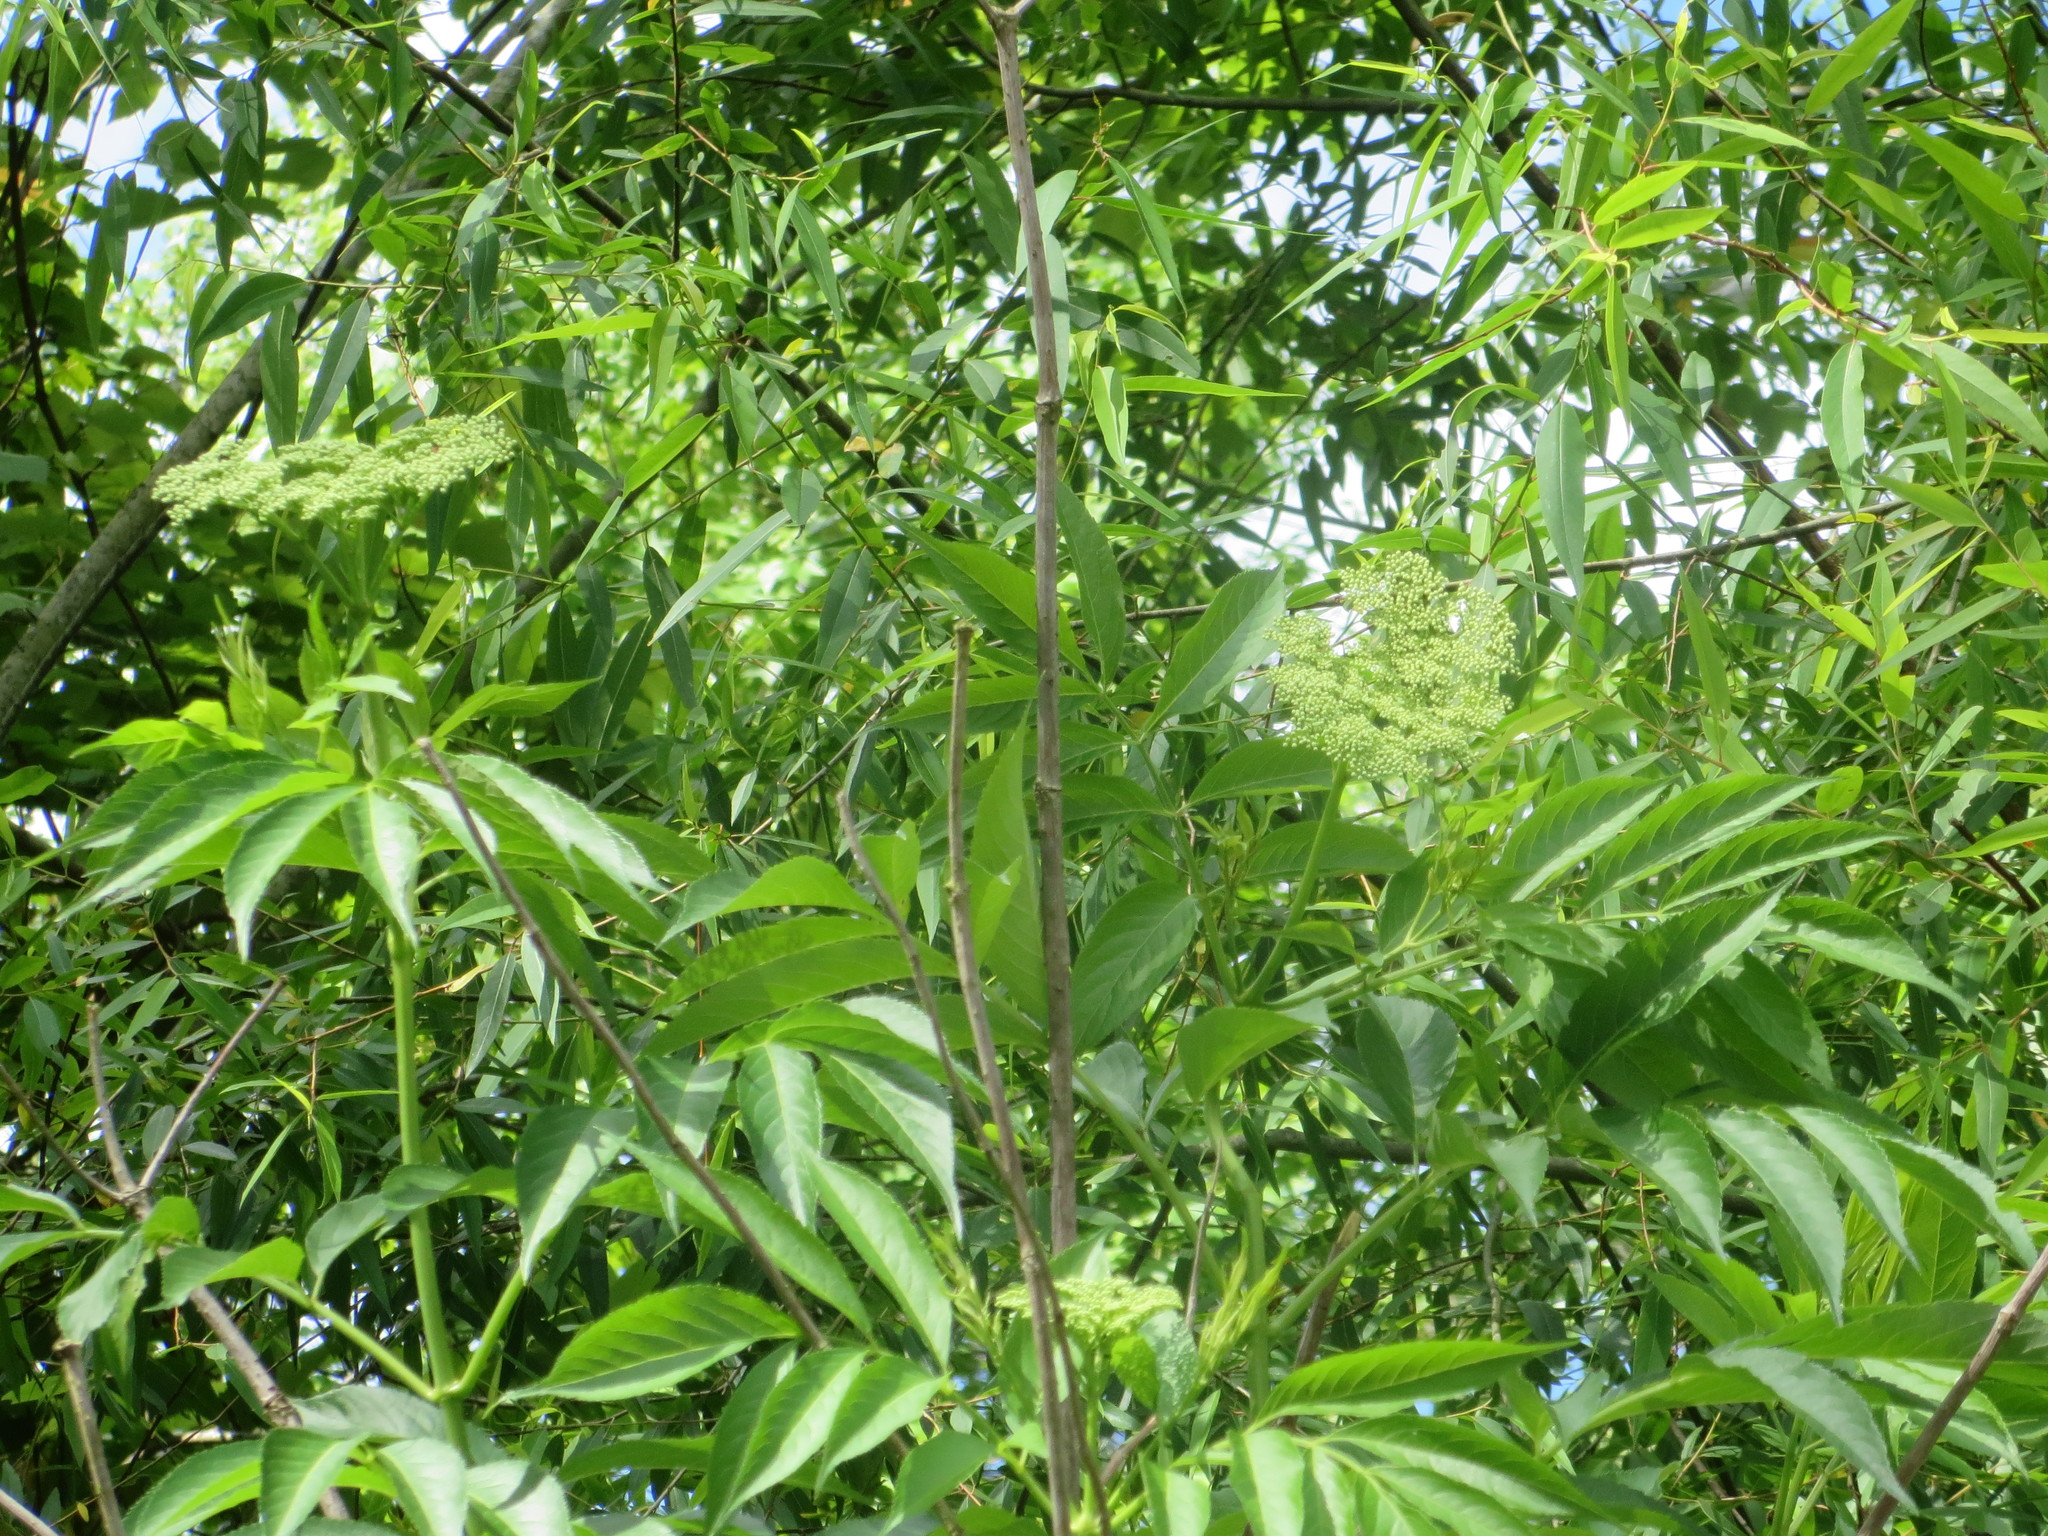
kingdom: Plantae
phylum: Tracheophyta
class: Magnoliopsida
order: Dipsacales
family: Viburnaceae
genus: Sambucus
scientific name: Sambucus canadensis
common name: American elder
